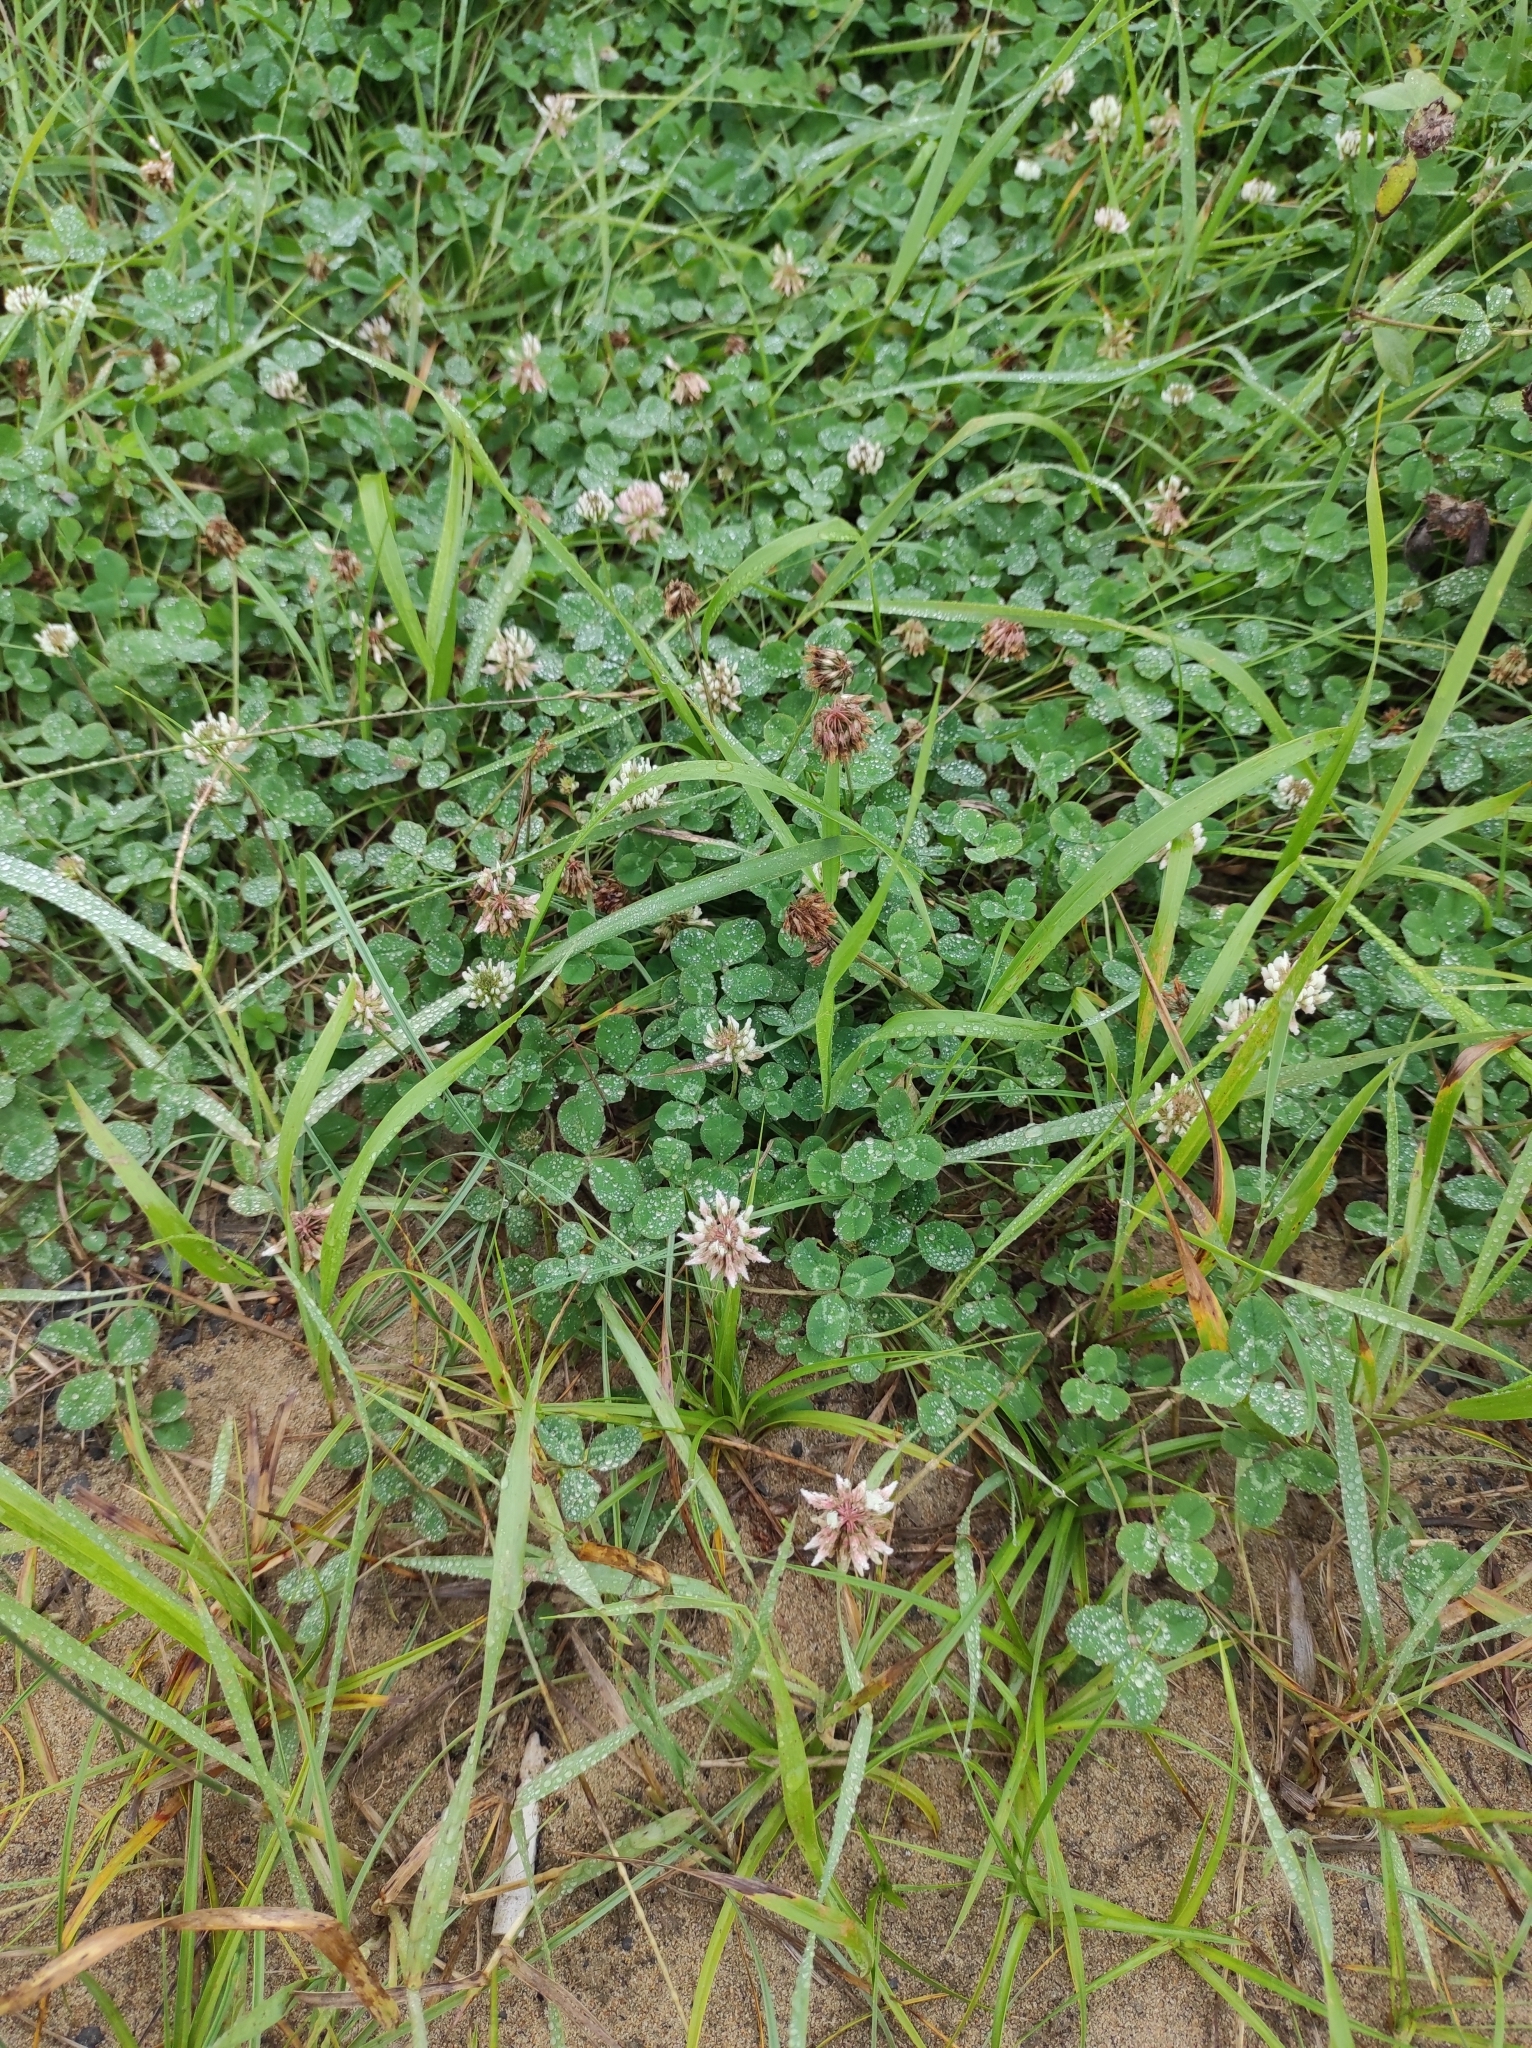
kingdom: Plantae
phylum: Tracheophyta
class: Magnoliopsida
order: Fabales
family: Fabaceae
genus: Trifolium
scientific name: Trifolium repens
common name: White clover
